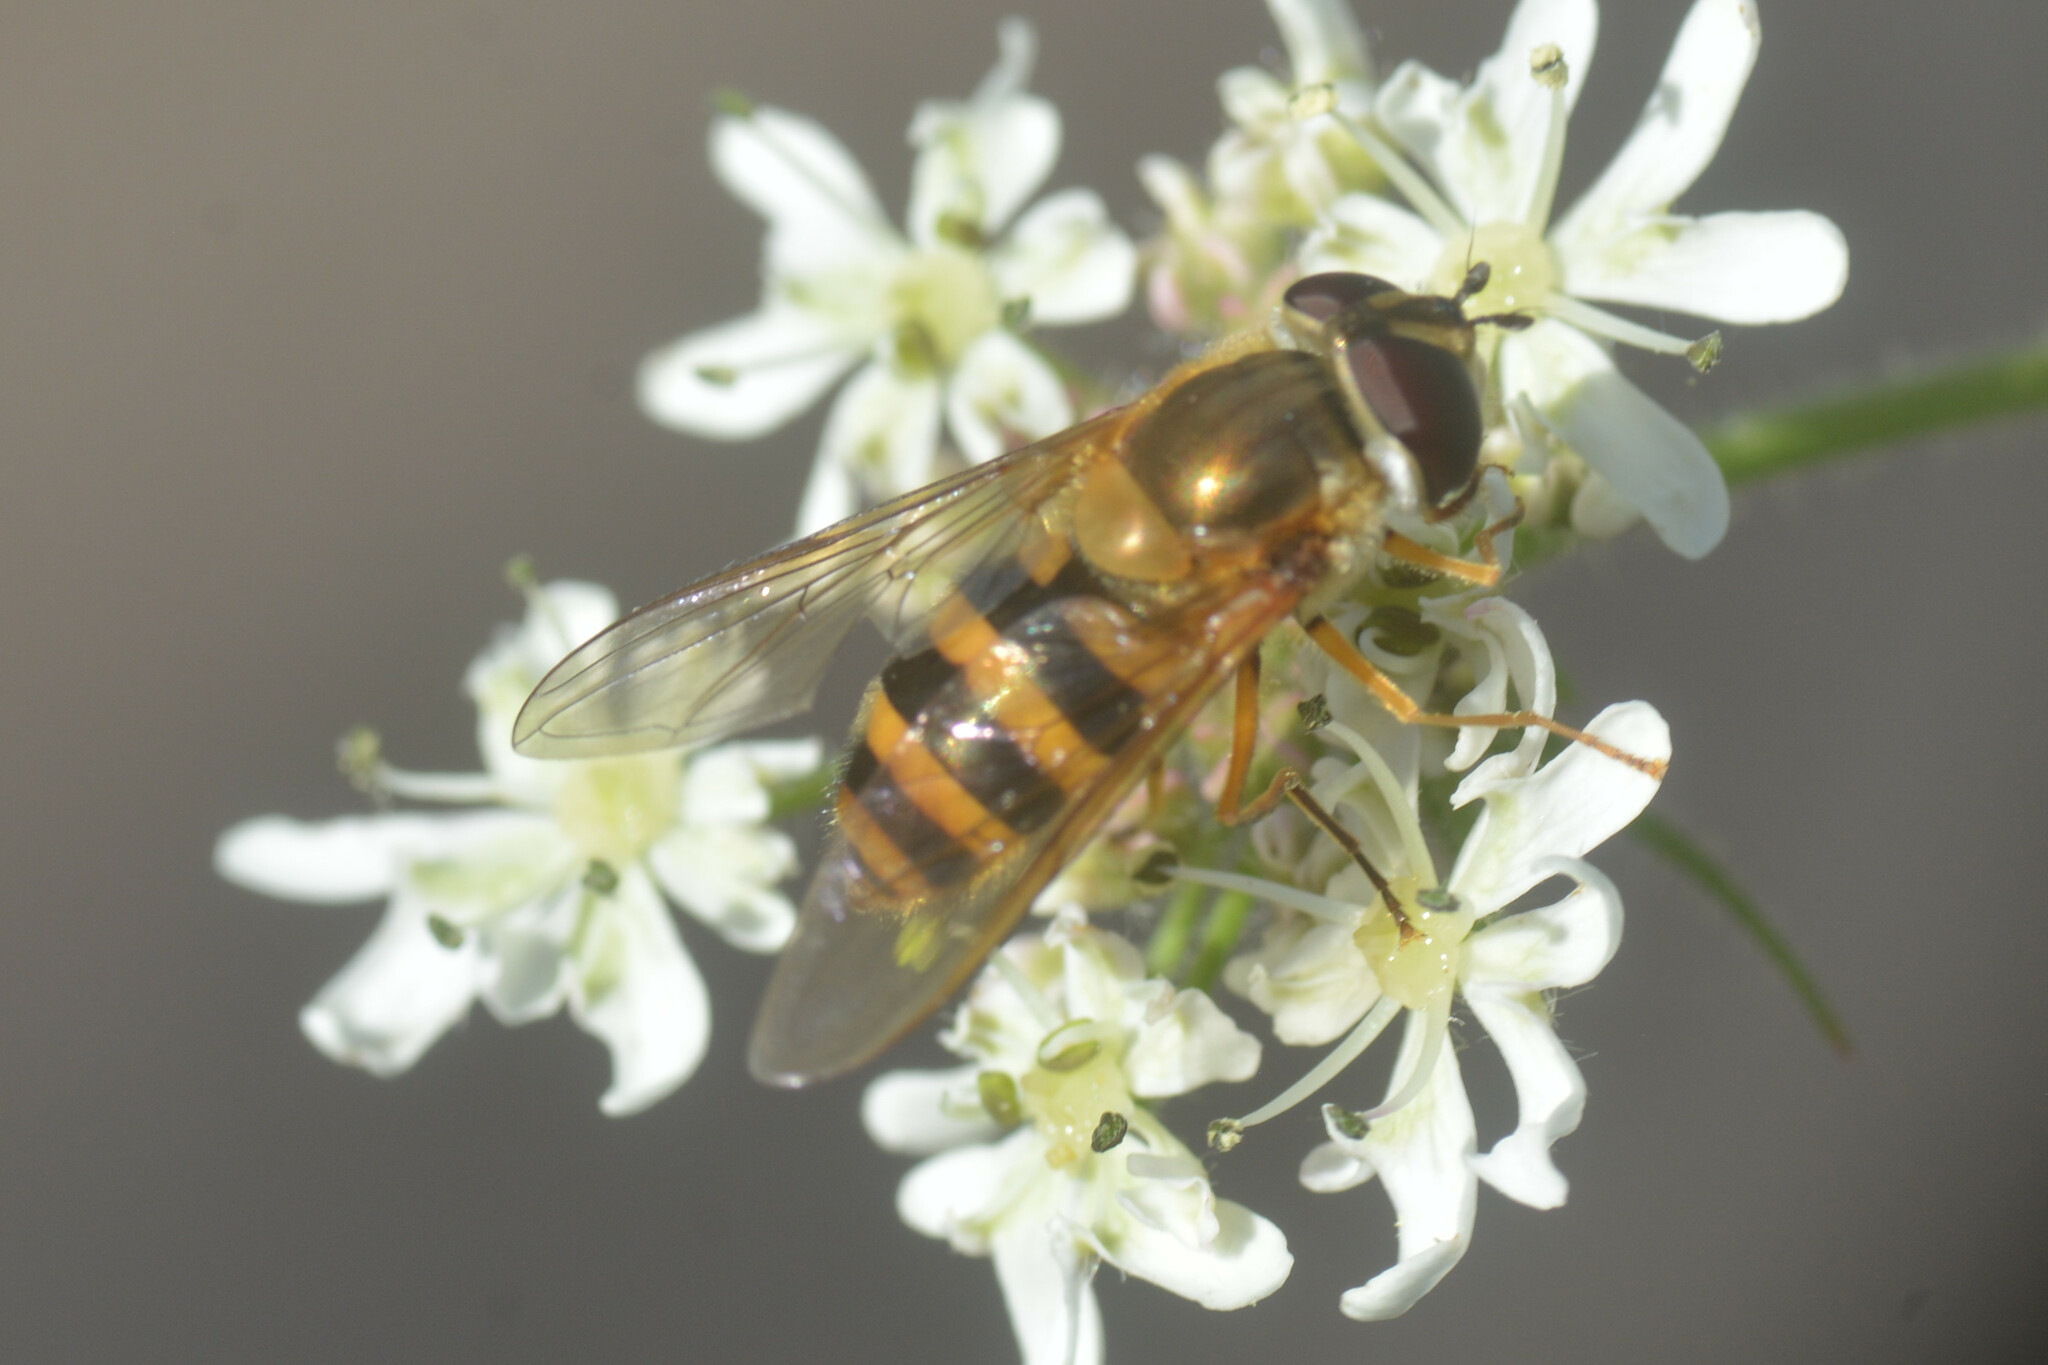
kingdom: Animalia
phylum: Arthropoda
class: Insecta
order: Diptera
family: Syrphidae
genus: Epistrophe
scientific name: Epistrophe grossulariae
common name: Black-horned smoothtail
